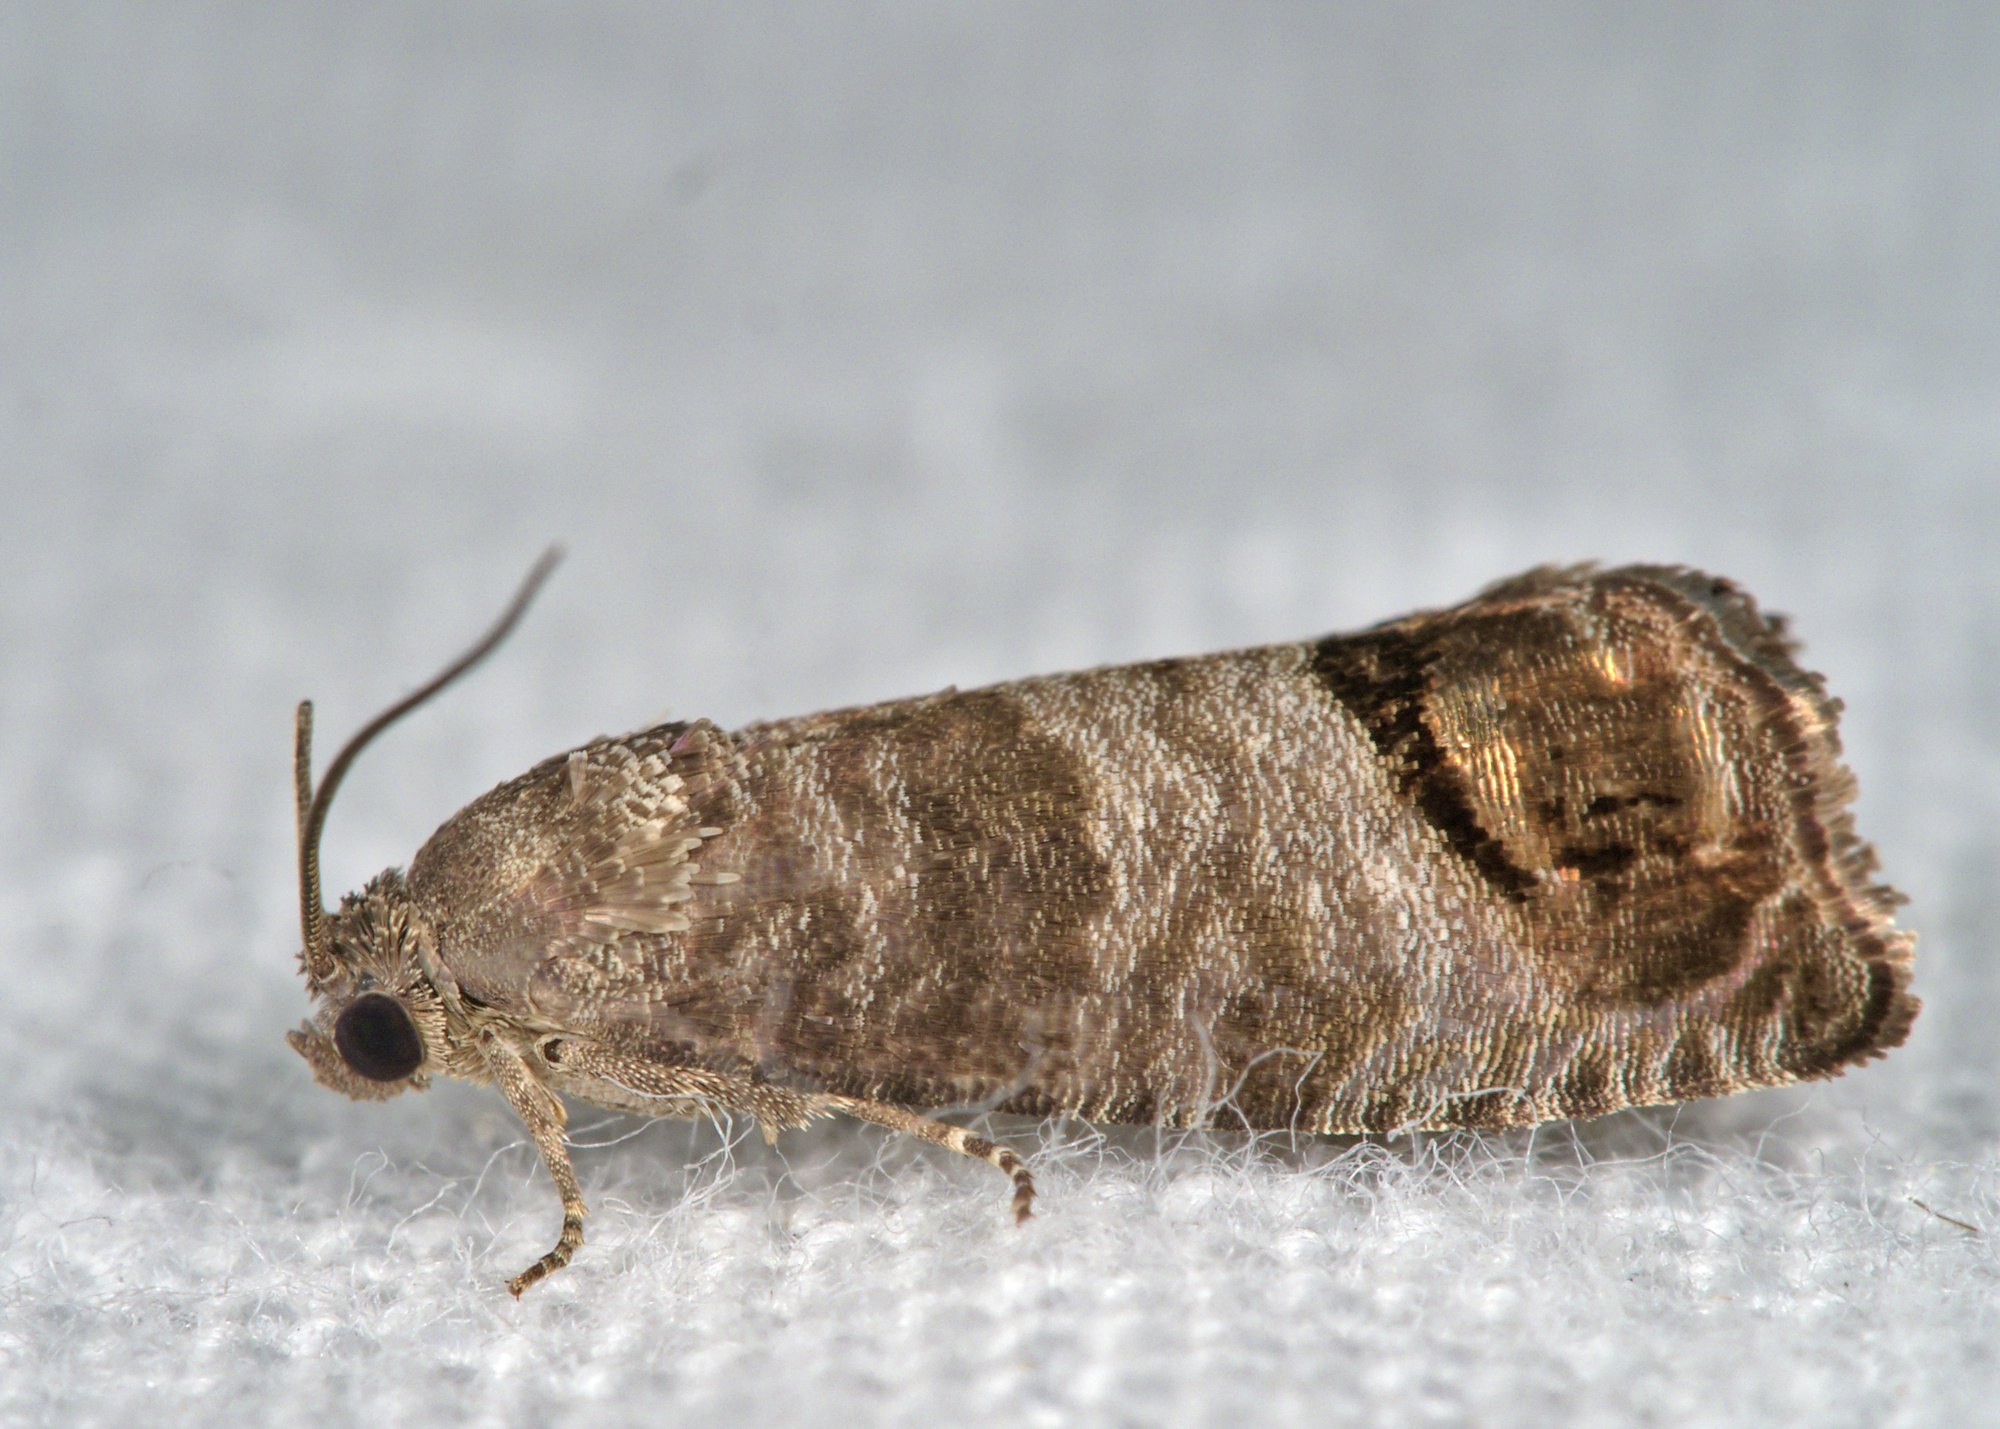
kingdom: Animalia
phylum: Arthropoda
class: Insecta
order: Lepidoptera
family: Tortricidae
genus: Cydia
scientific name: Cydia pomonella
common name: Codling moth
